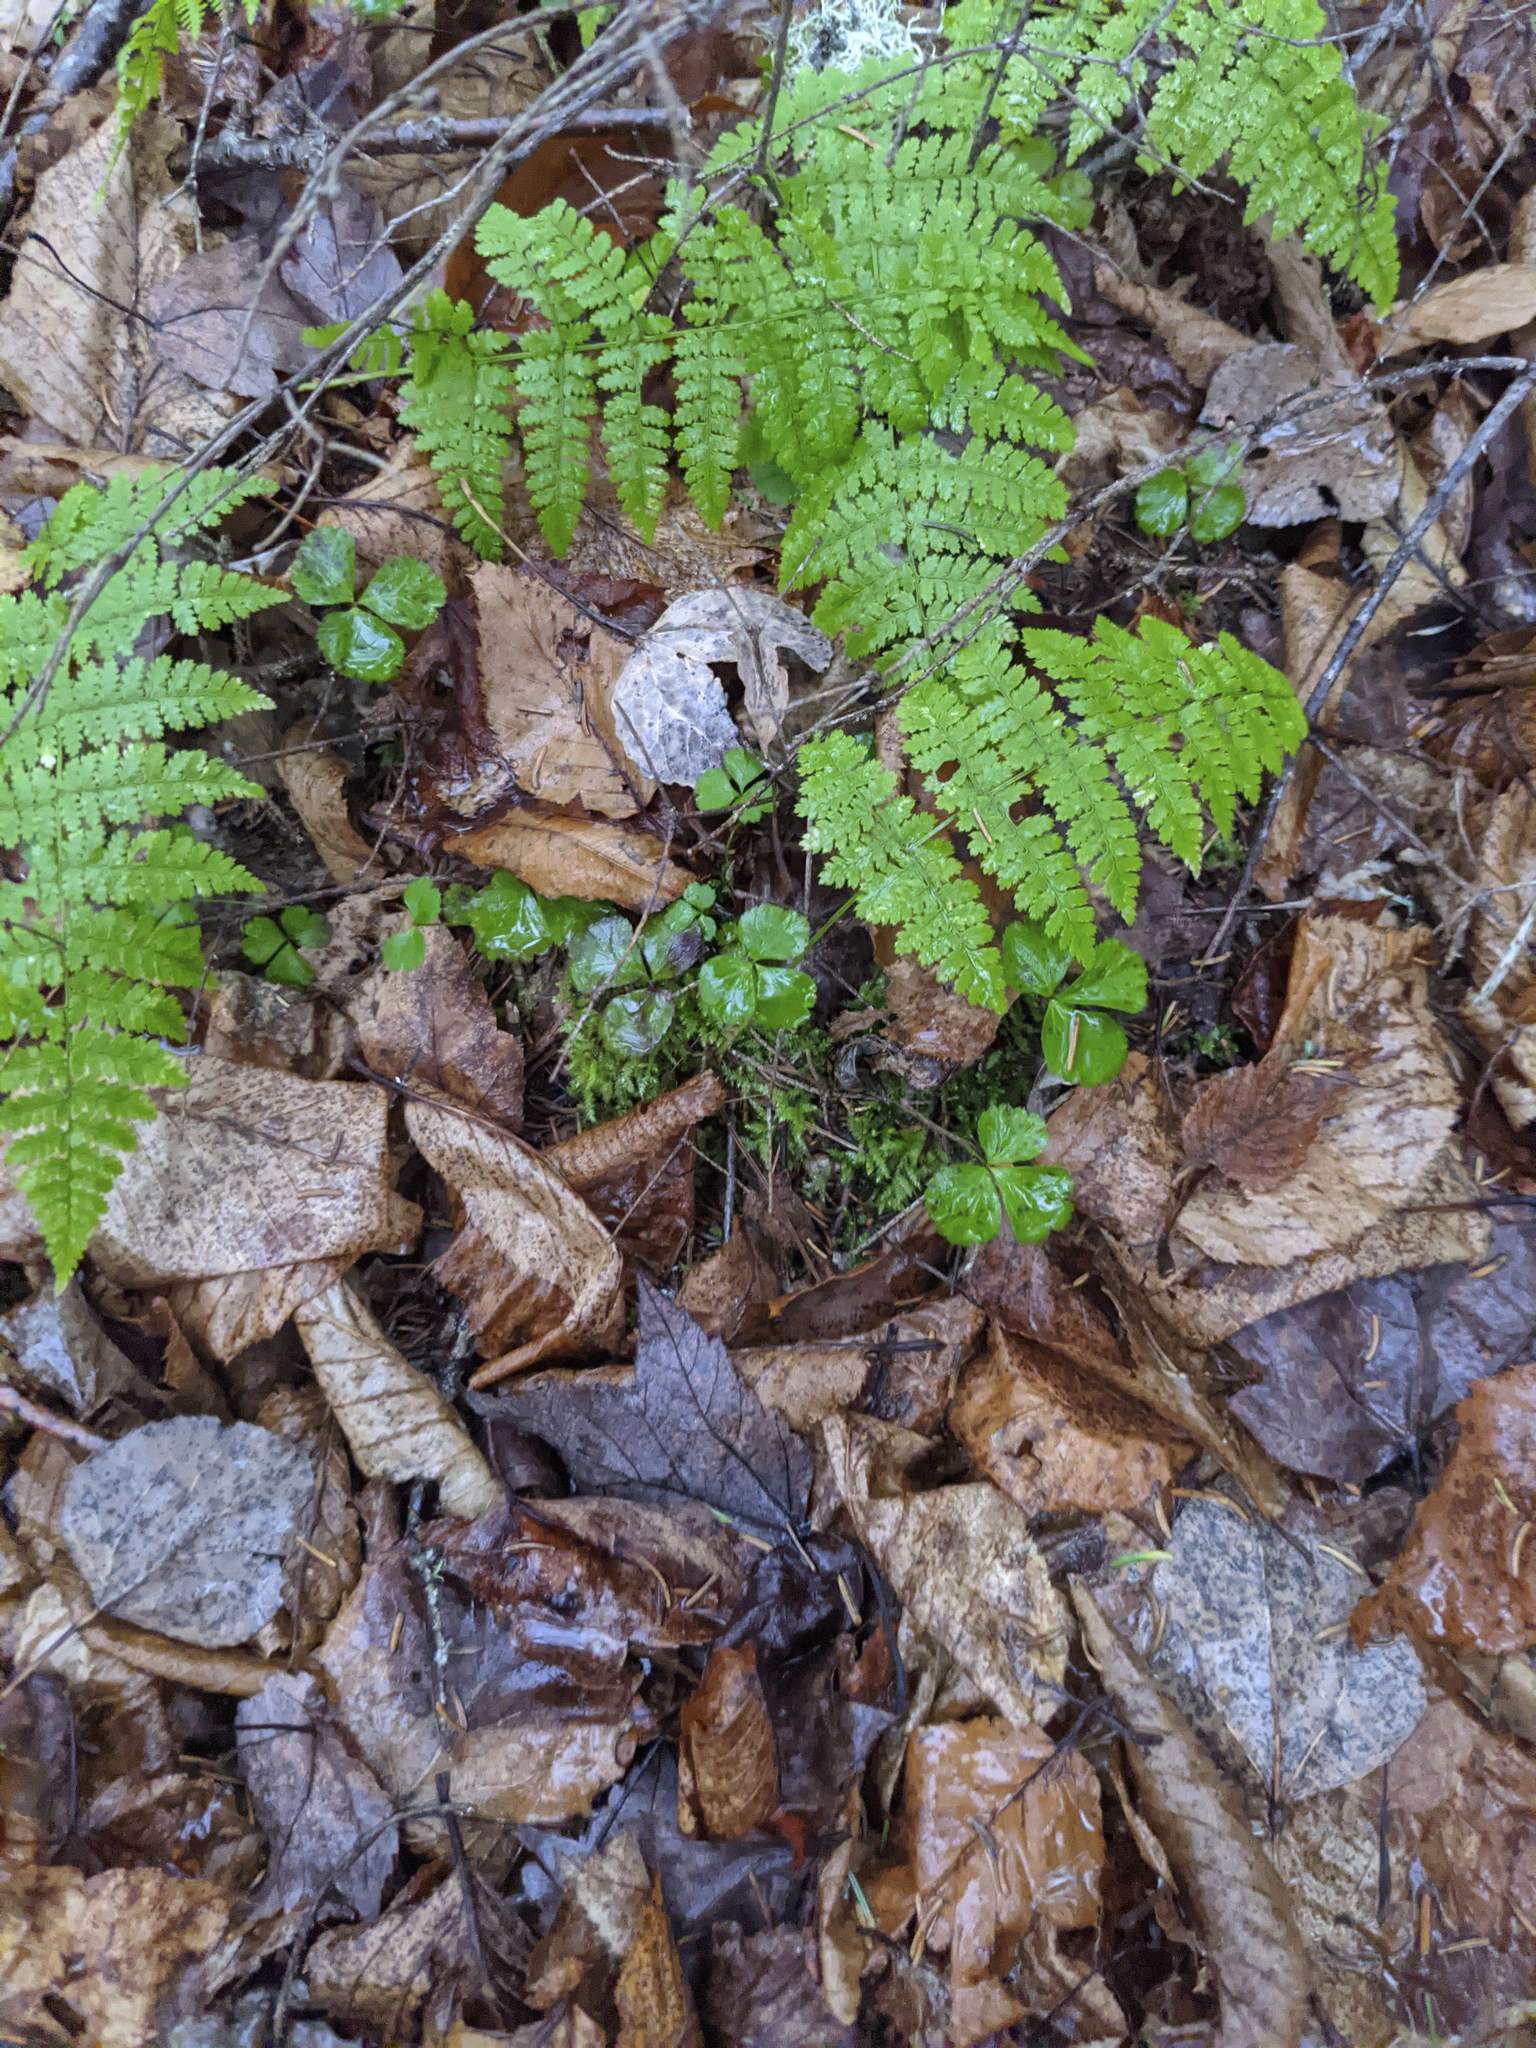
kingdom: Plantae
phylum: Tracheophyta
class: Polypodiopsida
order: Polypodiales
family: Dryopteridaceae
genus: Dryopteris
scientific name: Dryopteris intermedia
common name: Evergreen wood fern
